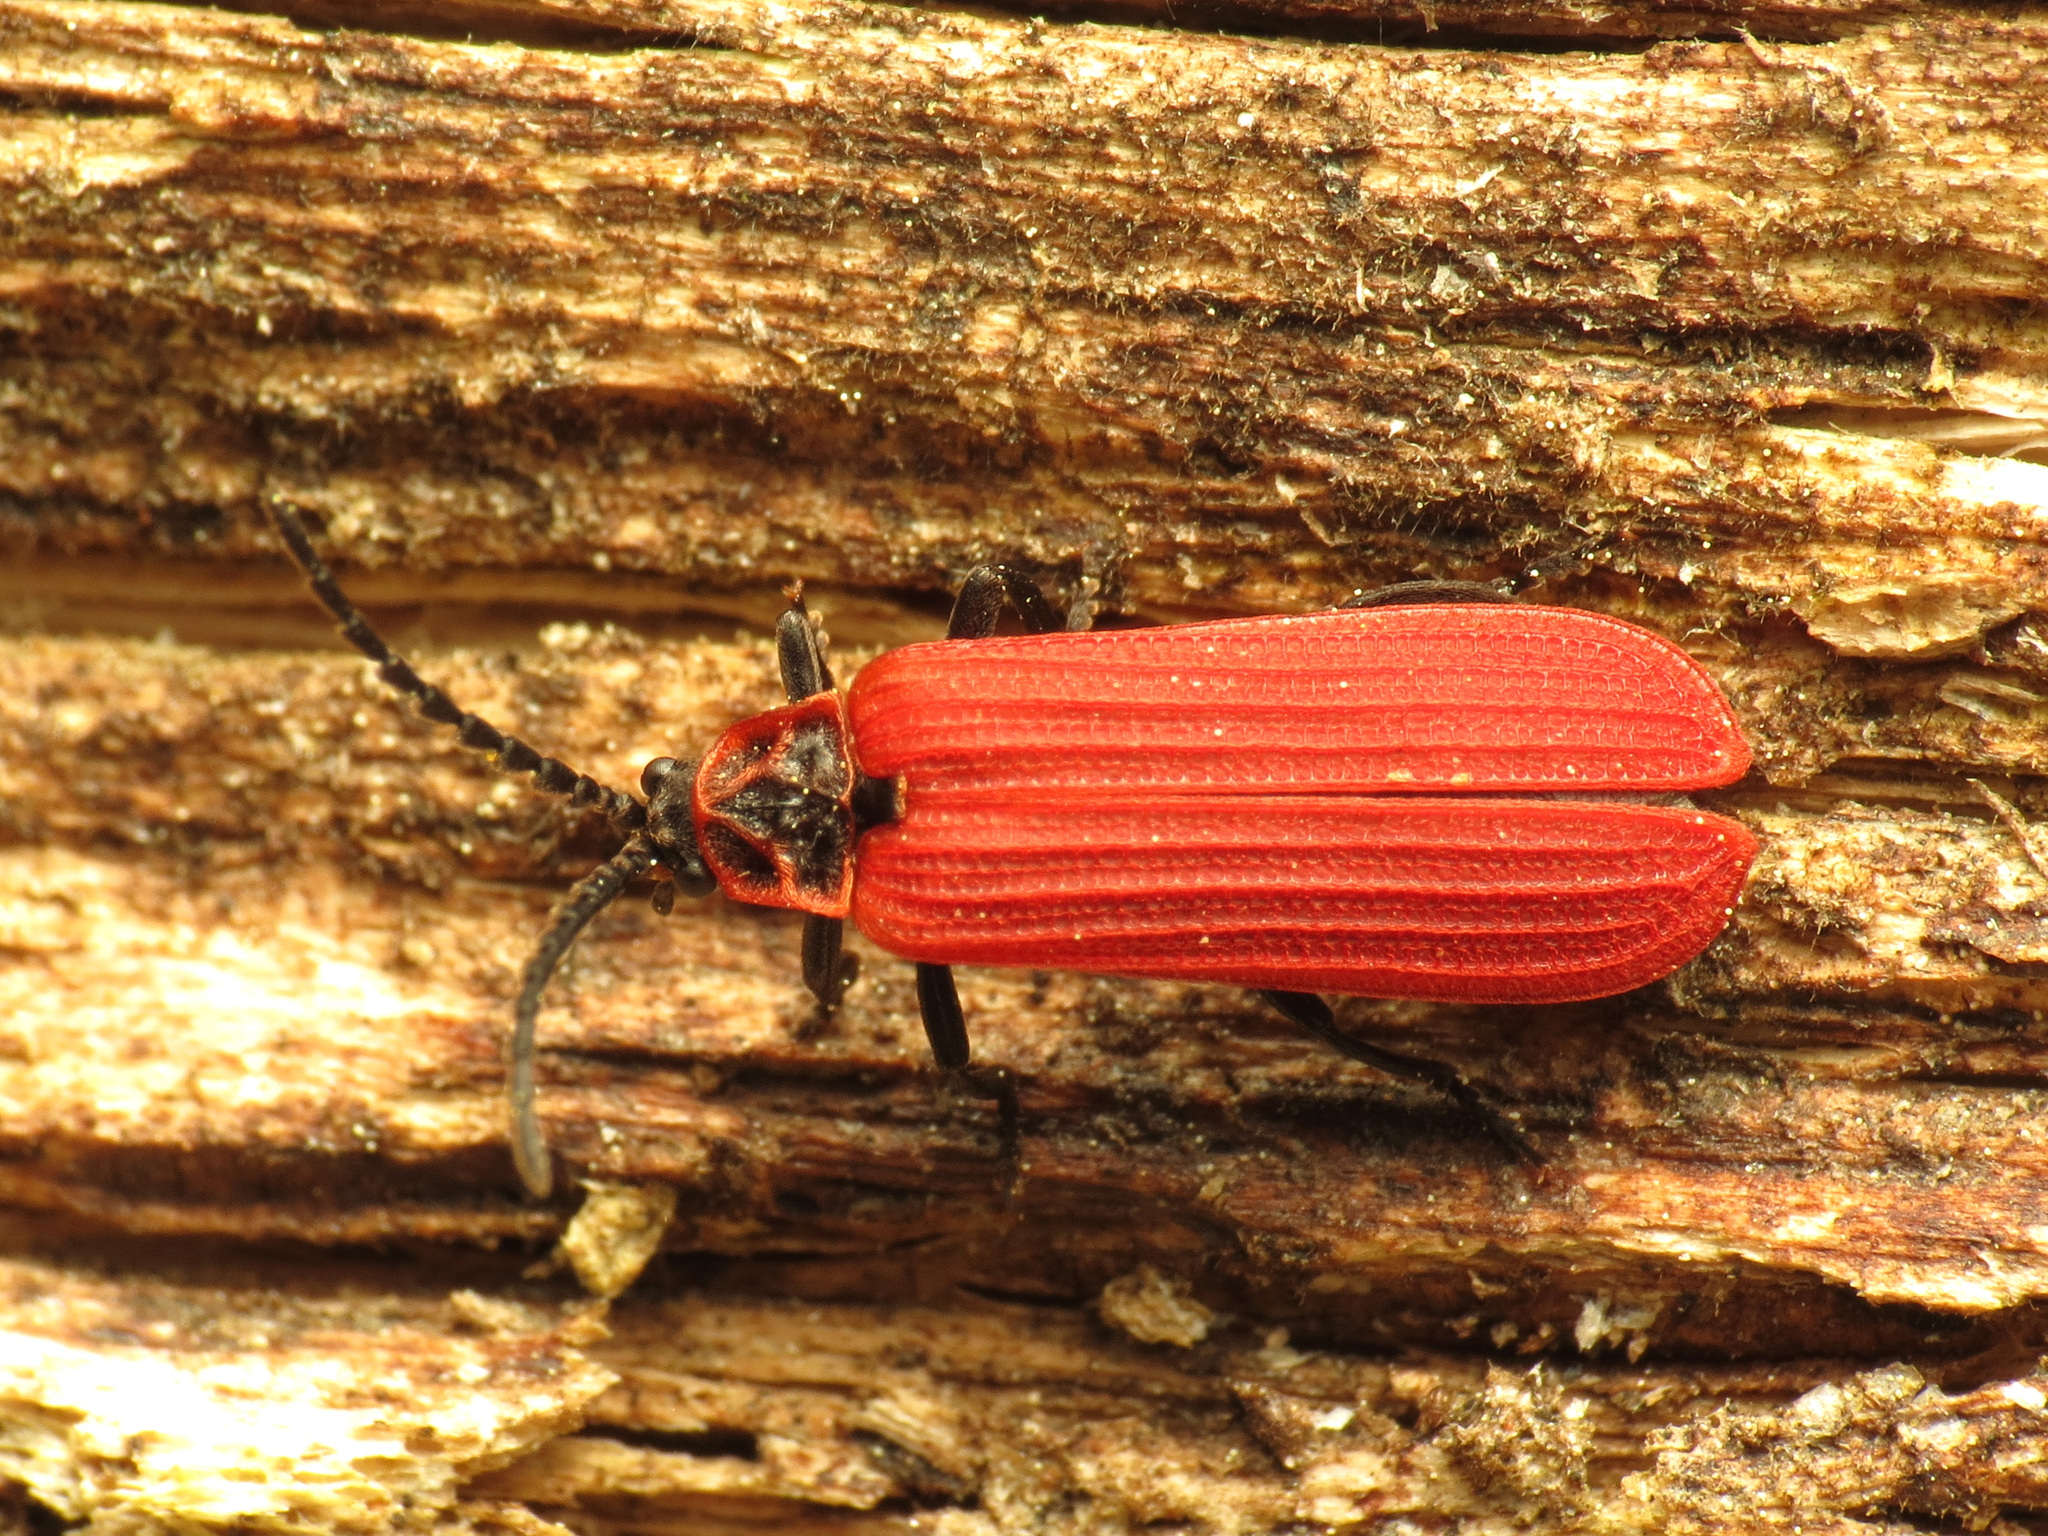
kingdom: Animalia
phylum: Arthropoda
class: Insecta
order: Coleoptera
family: Lycidae
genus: Dictyoptera
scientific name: Dictyoptera aurora
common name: Golden net-winged beetle
